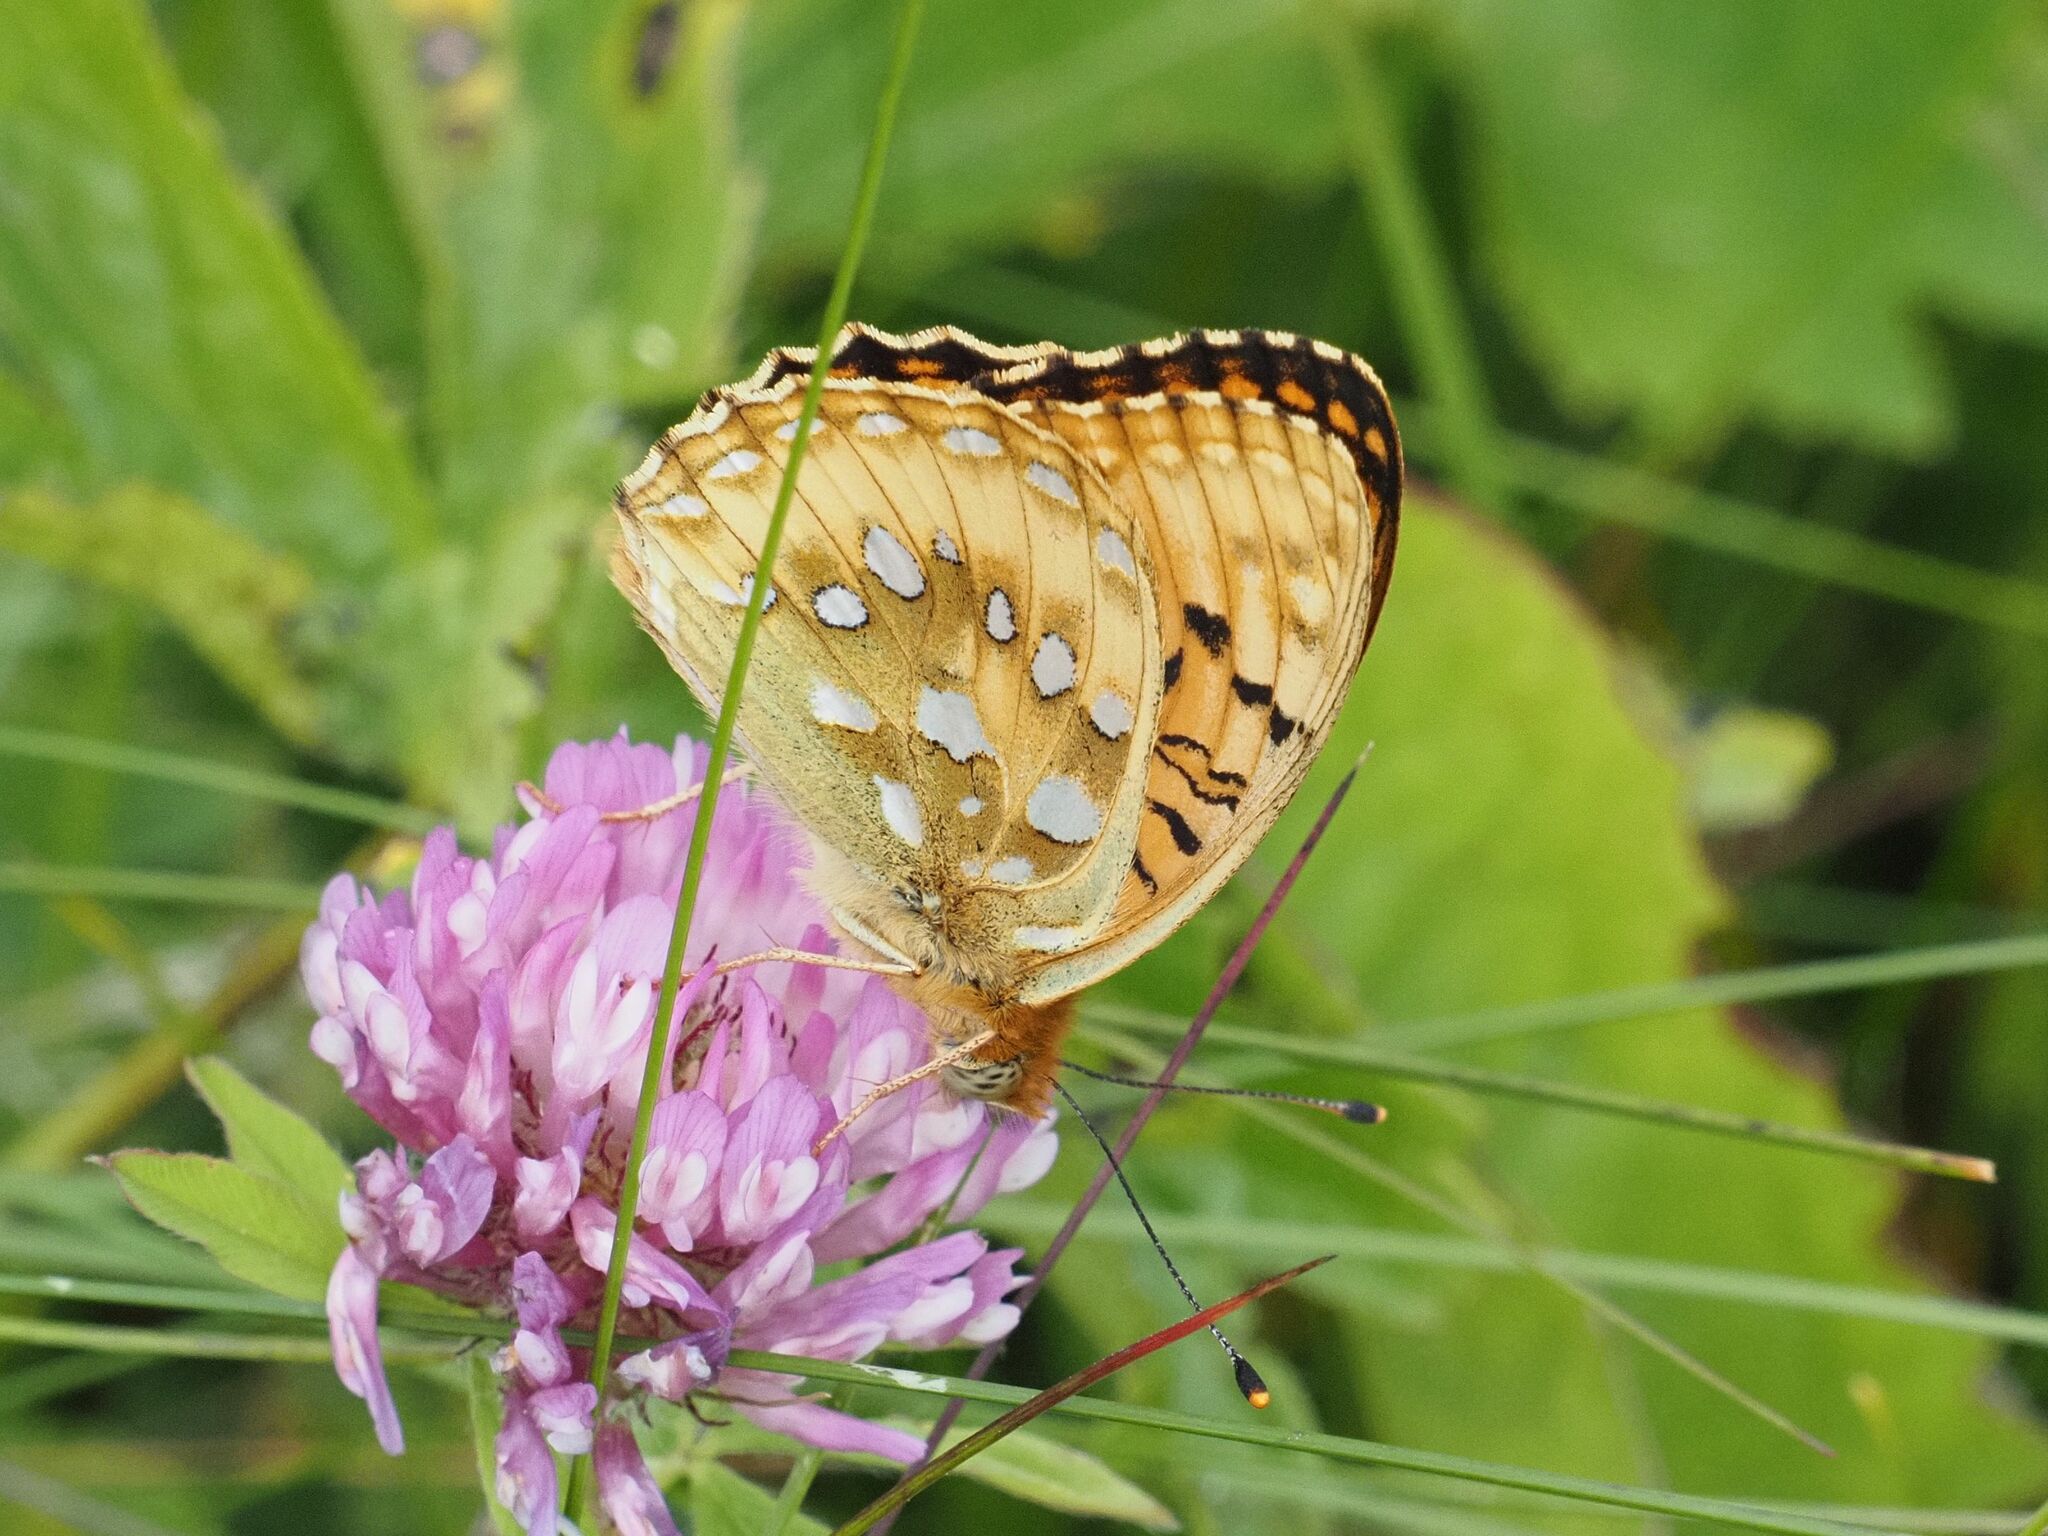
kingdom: Animalia
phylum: Arthropoda
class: Insecta
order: Lepidoptera
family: Nymphalidae
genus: Speyeria
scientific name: Speyeria aglaja
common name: Dark green fritillary
